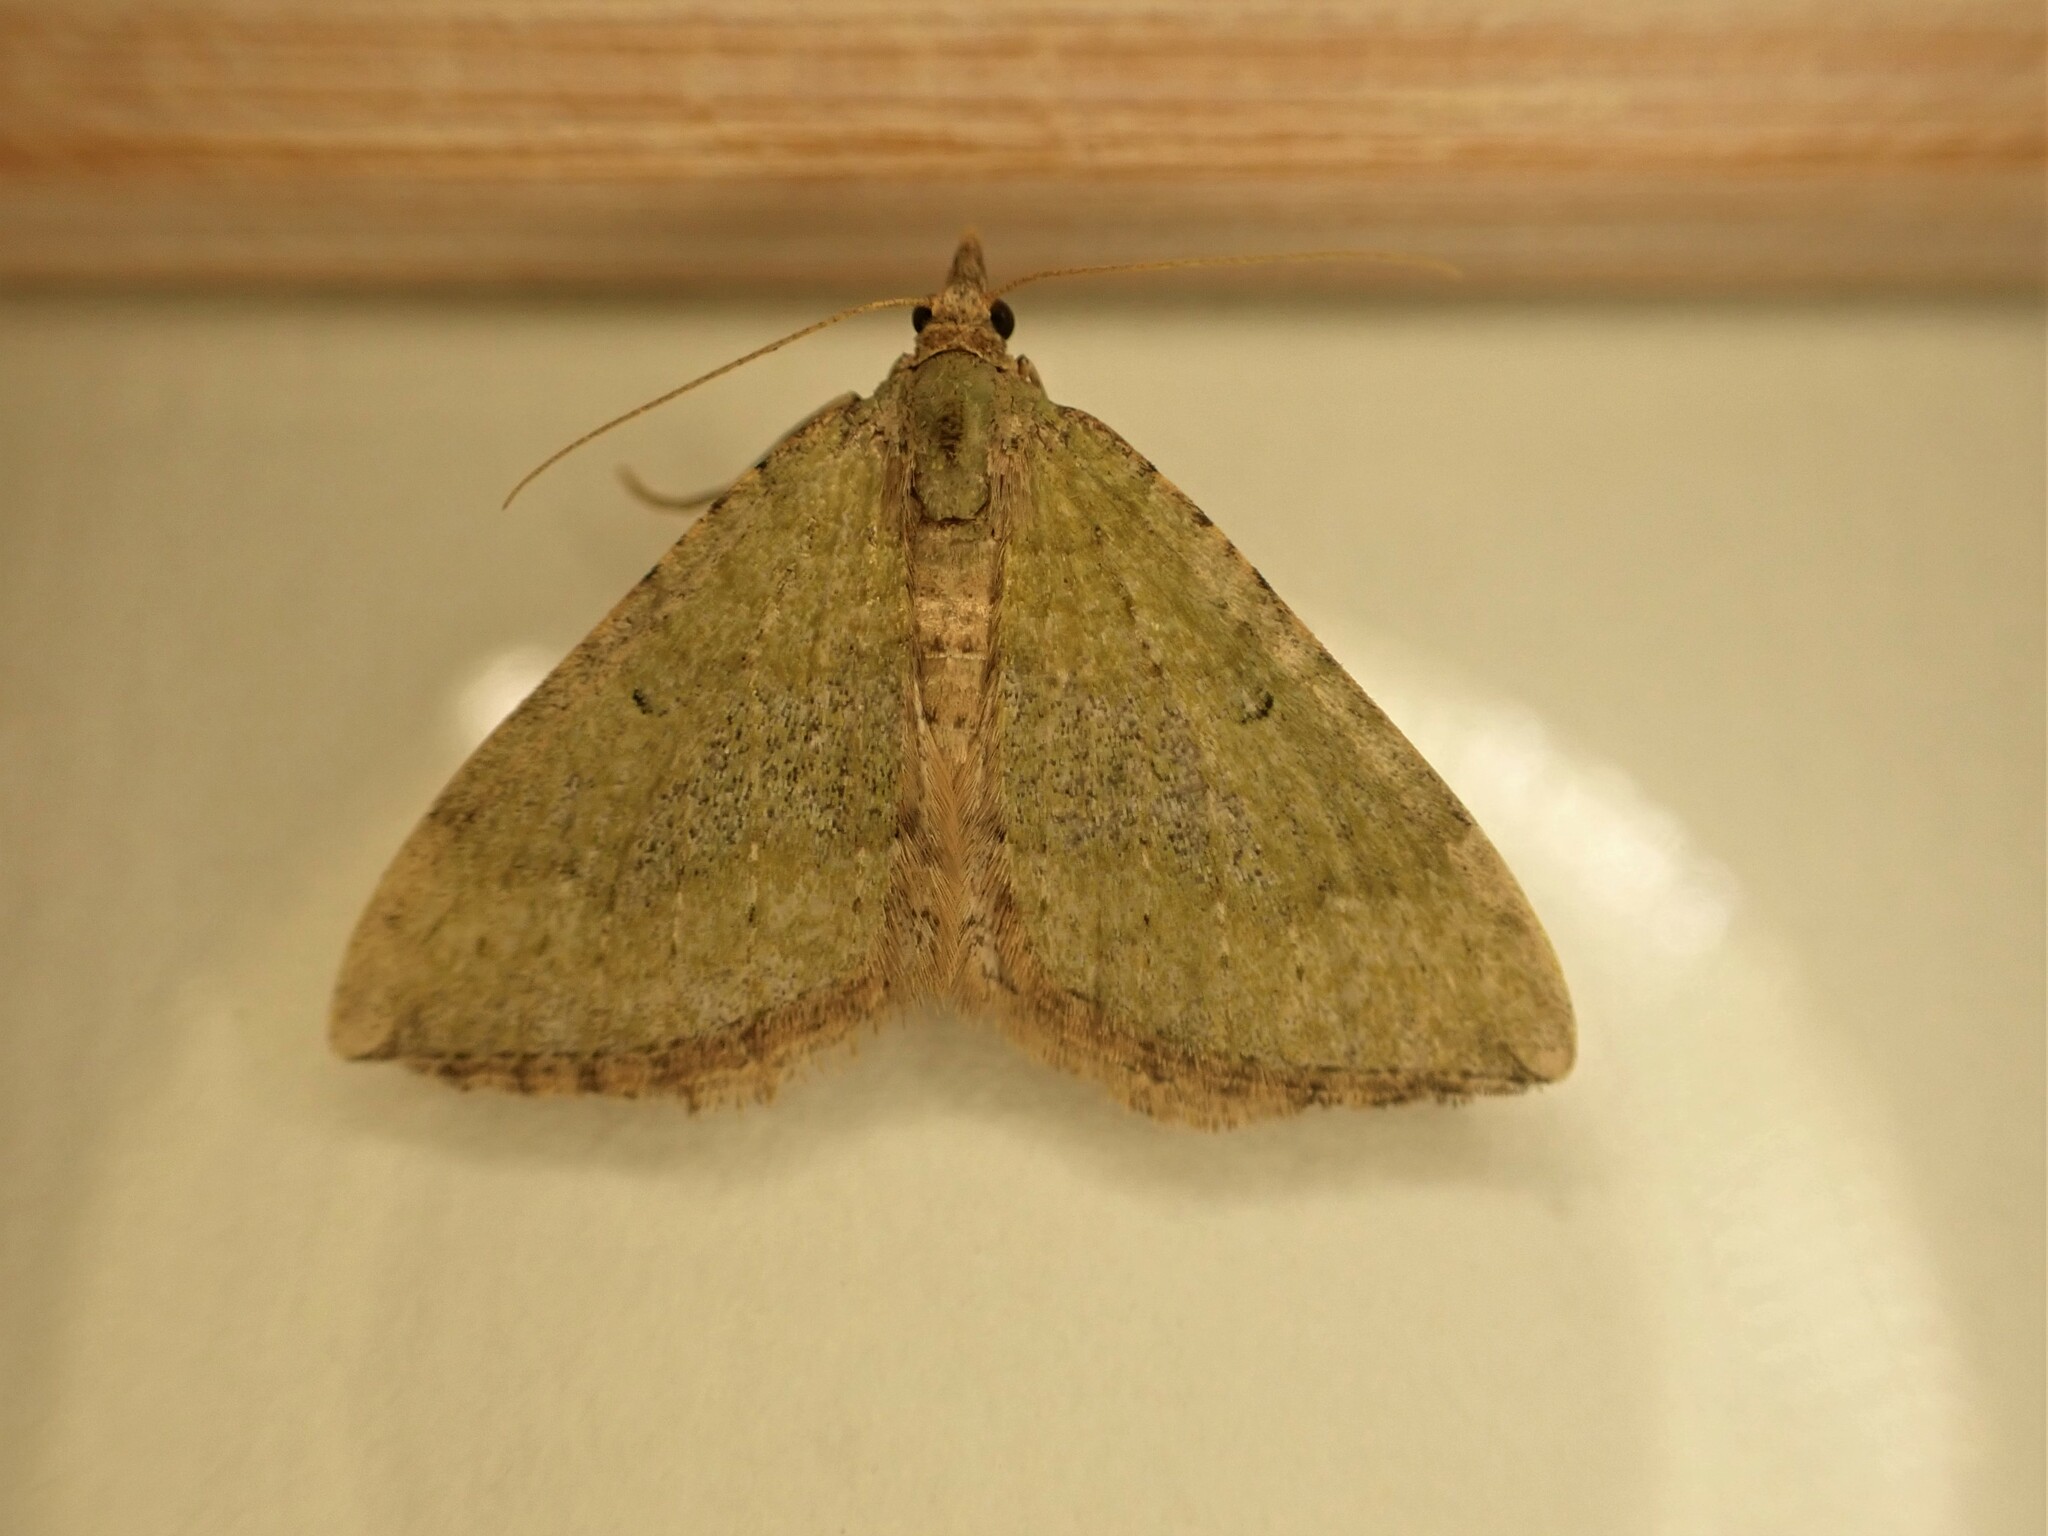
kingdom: Animalia
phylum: Arthropoda
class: Insecta
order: Lepidoptera
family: Geometridae
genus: Epyaxa
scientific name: Epyaxa rosearia
